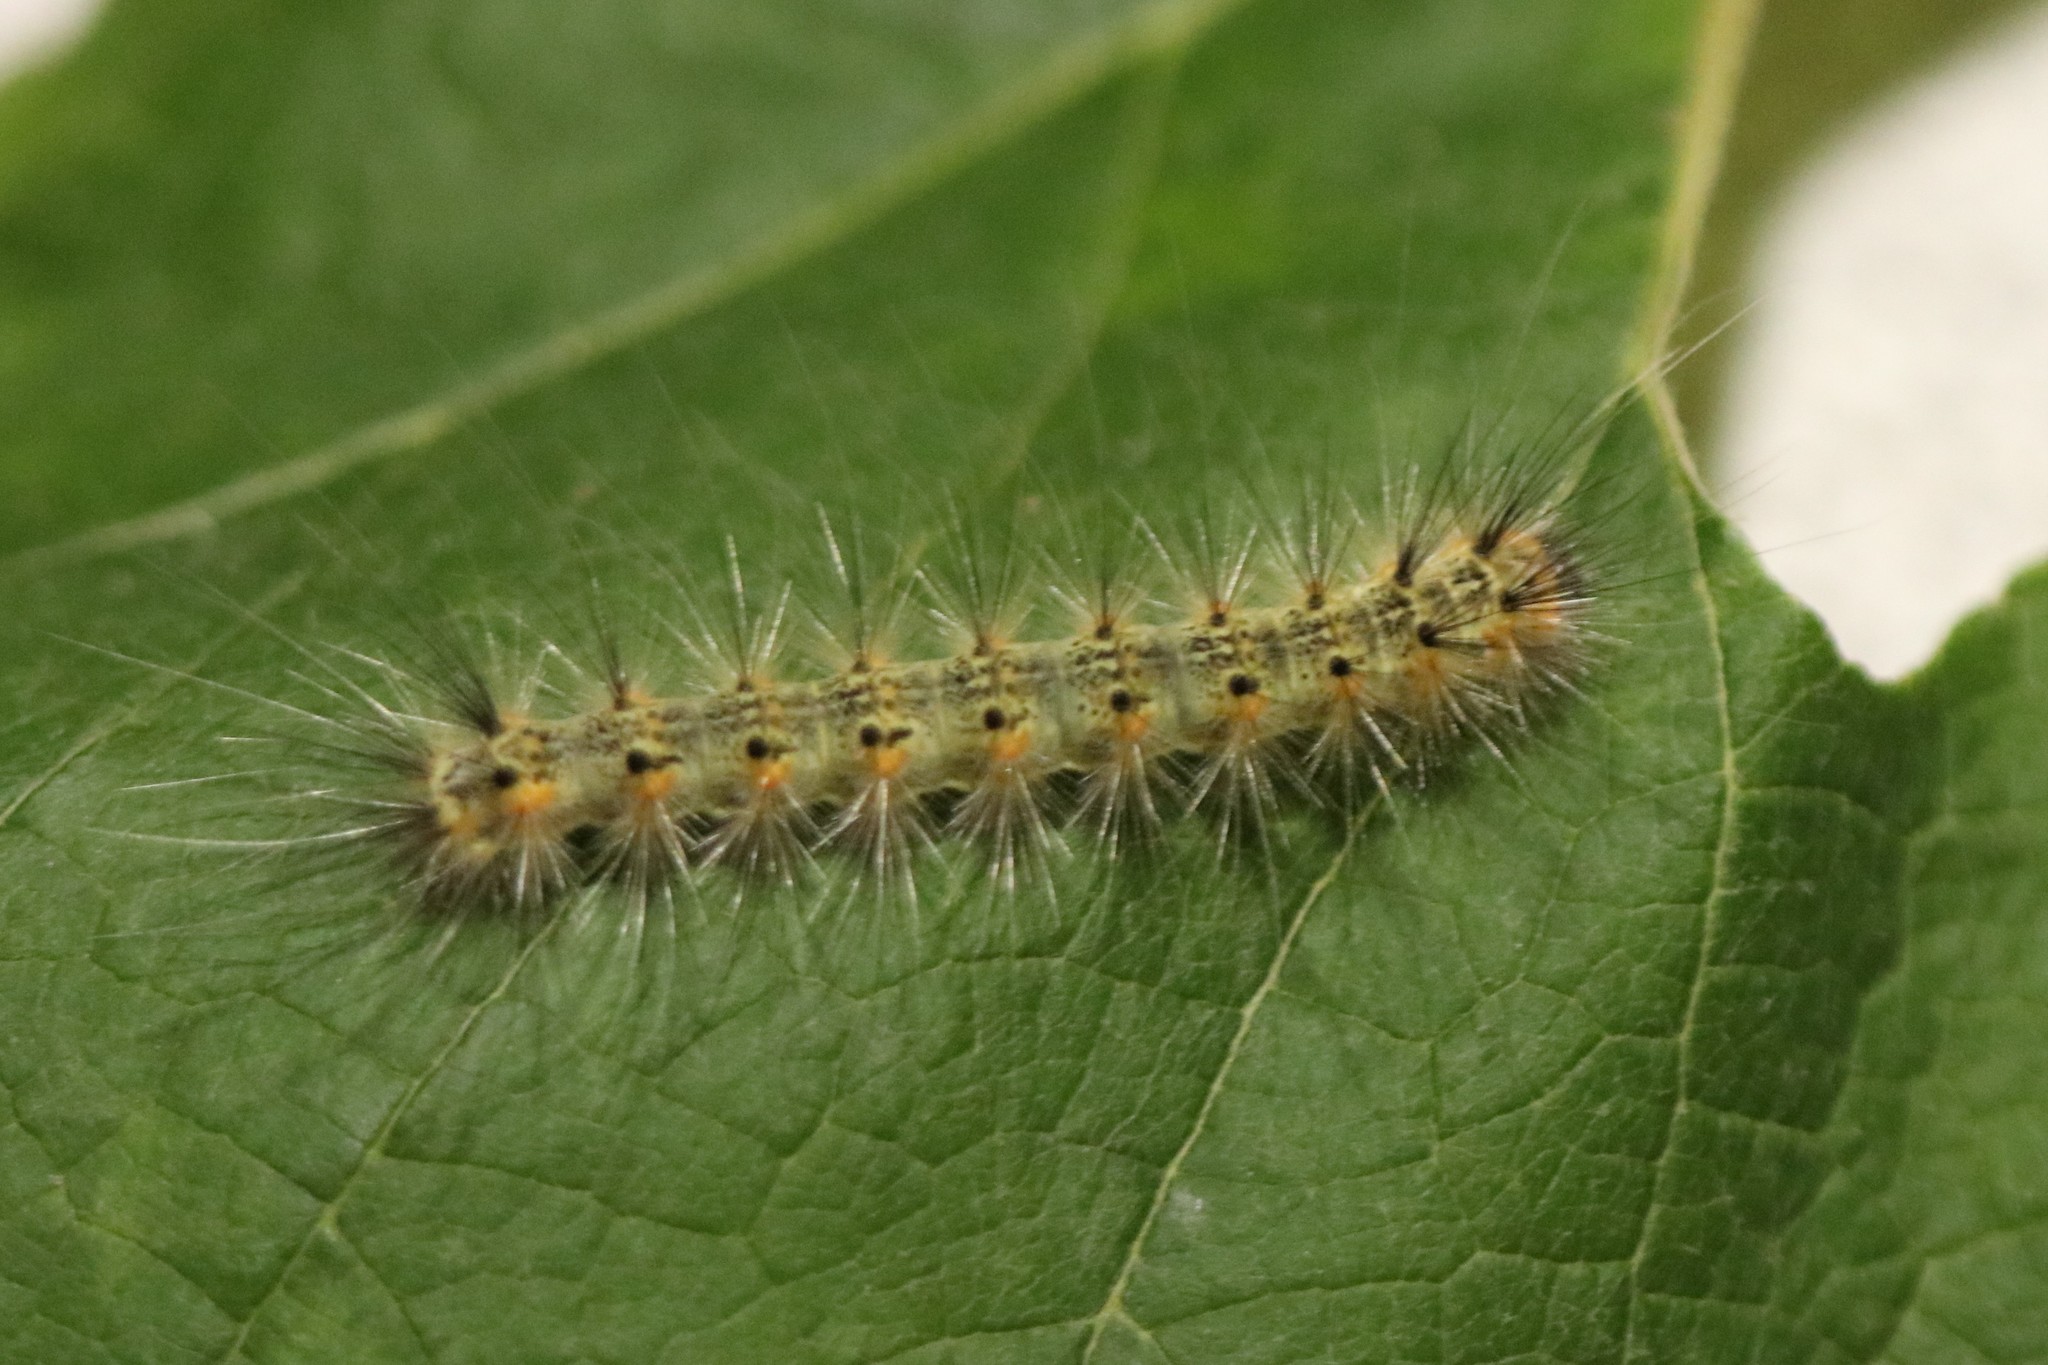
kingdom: Animalia
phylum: Arthropoda
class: Insecta
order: Lepidoptera
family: Erebidae
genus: Hyphantria
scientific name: Hyphantria cunea
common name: American white moth
